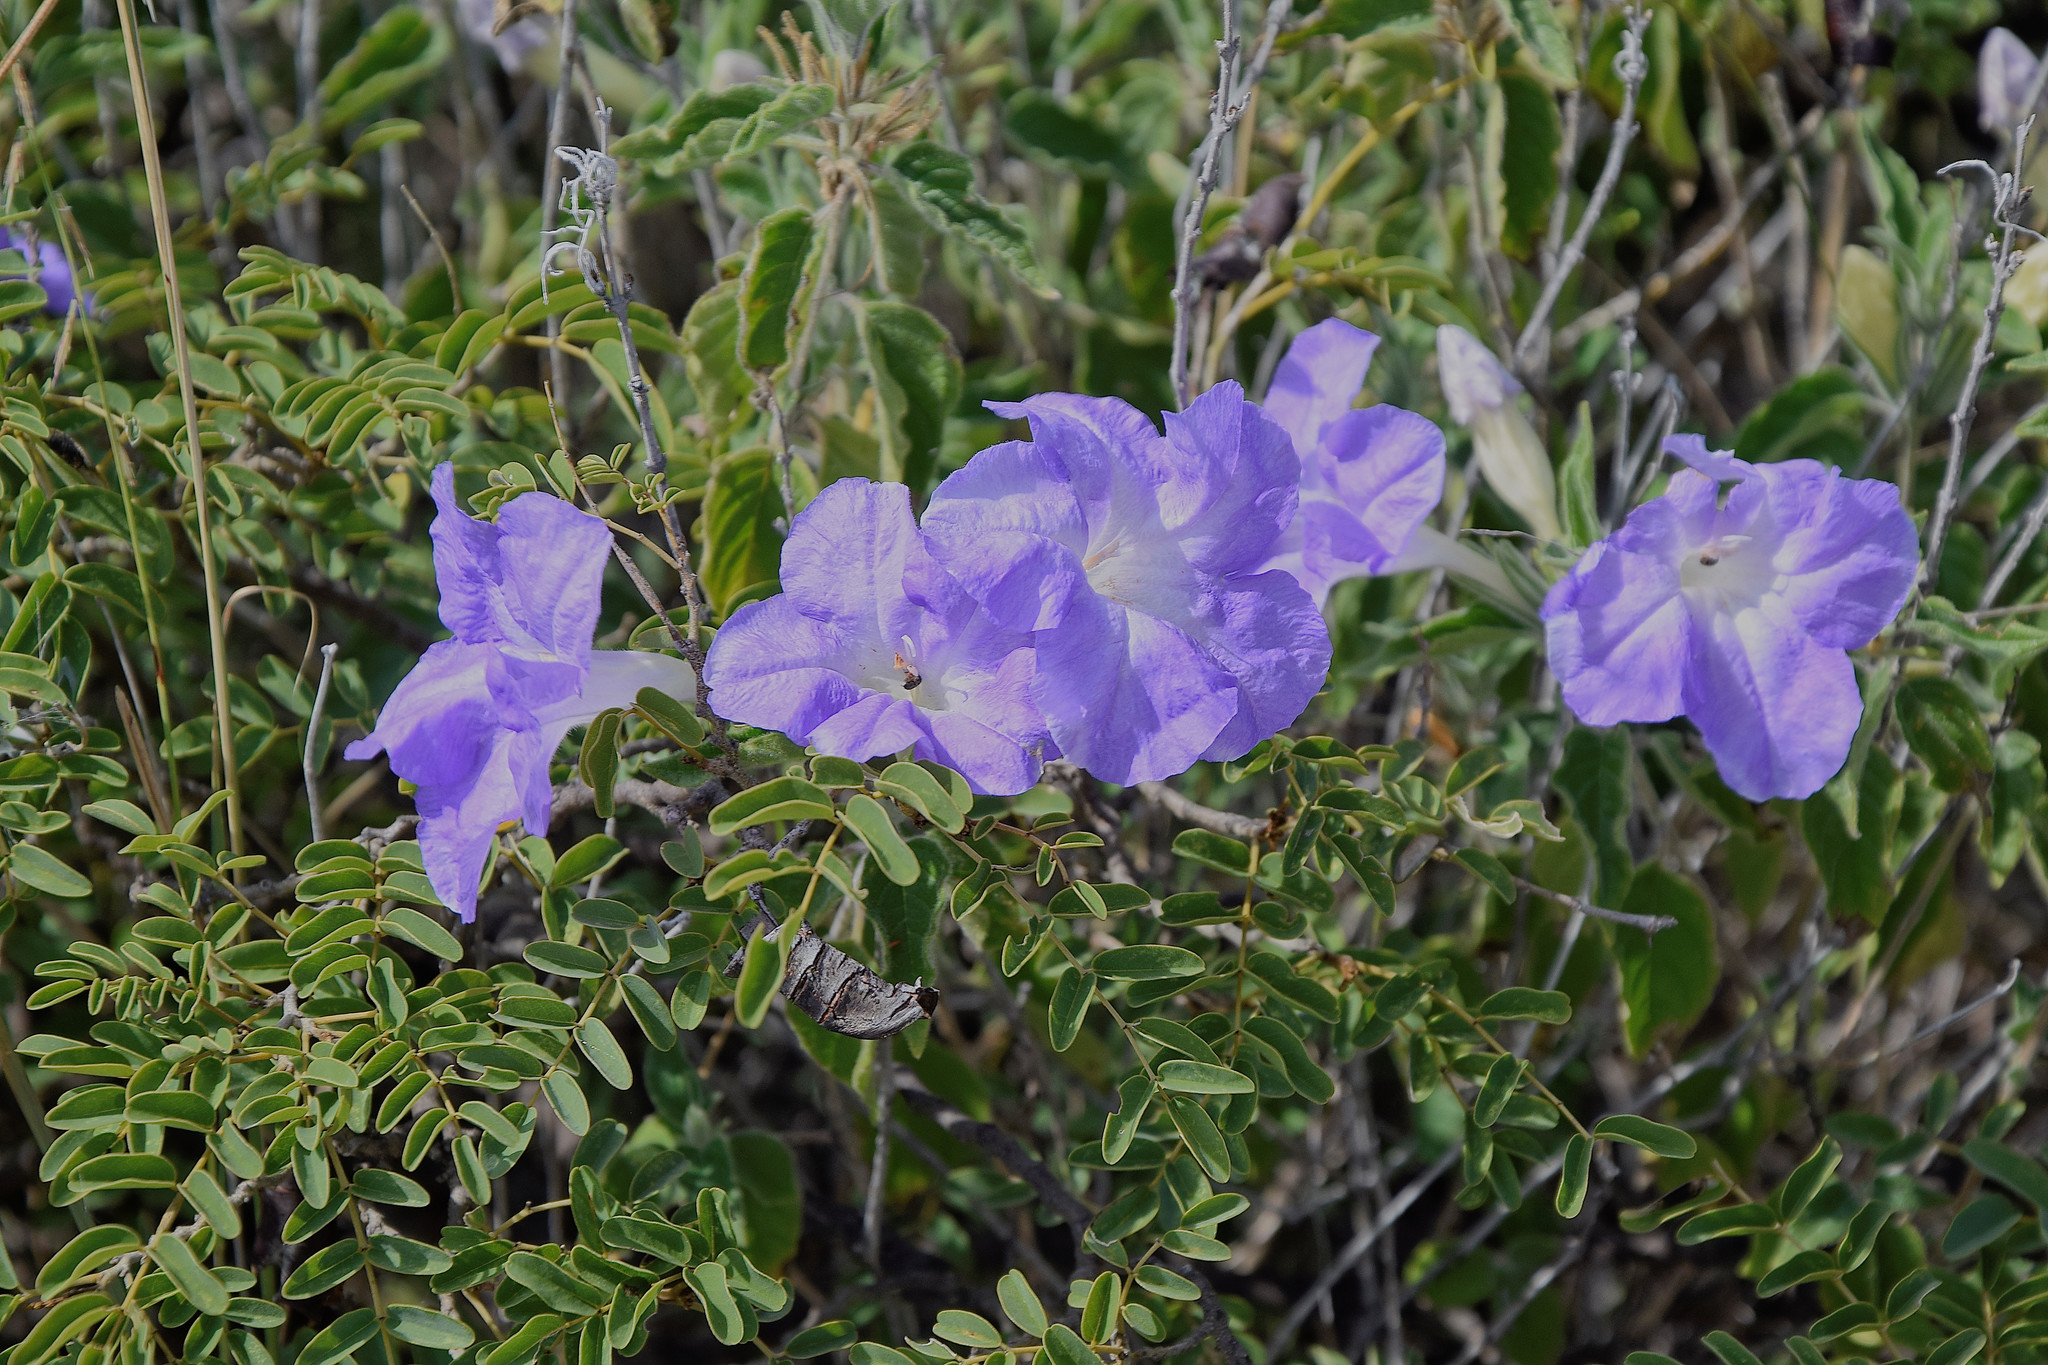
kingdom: Plantae
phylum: Tracheophyta
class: Magnoliopsida
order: Lamiales
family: Acanthaceae
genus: Ruellia
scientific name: Ruellia ciliatiflora
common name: Hairyflower wild petunia
